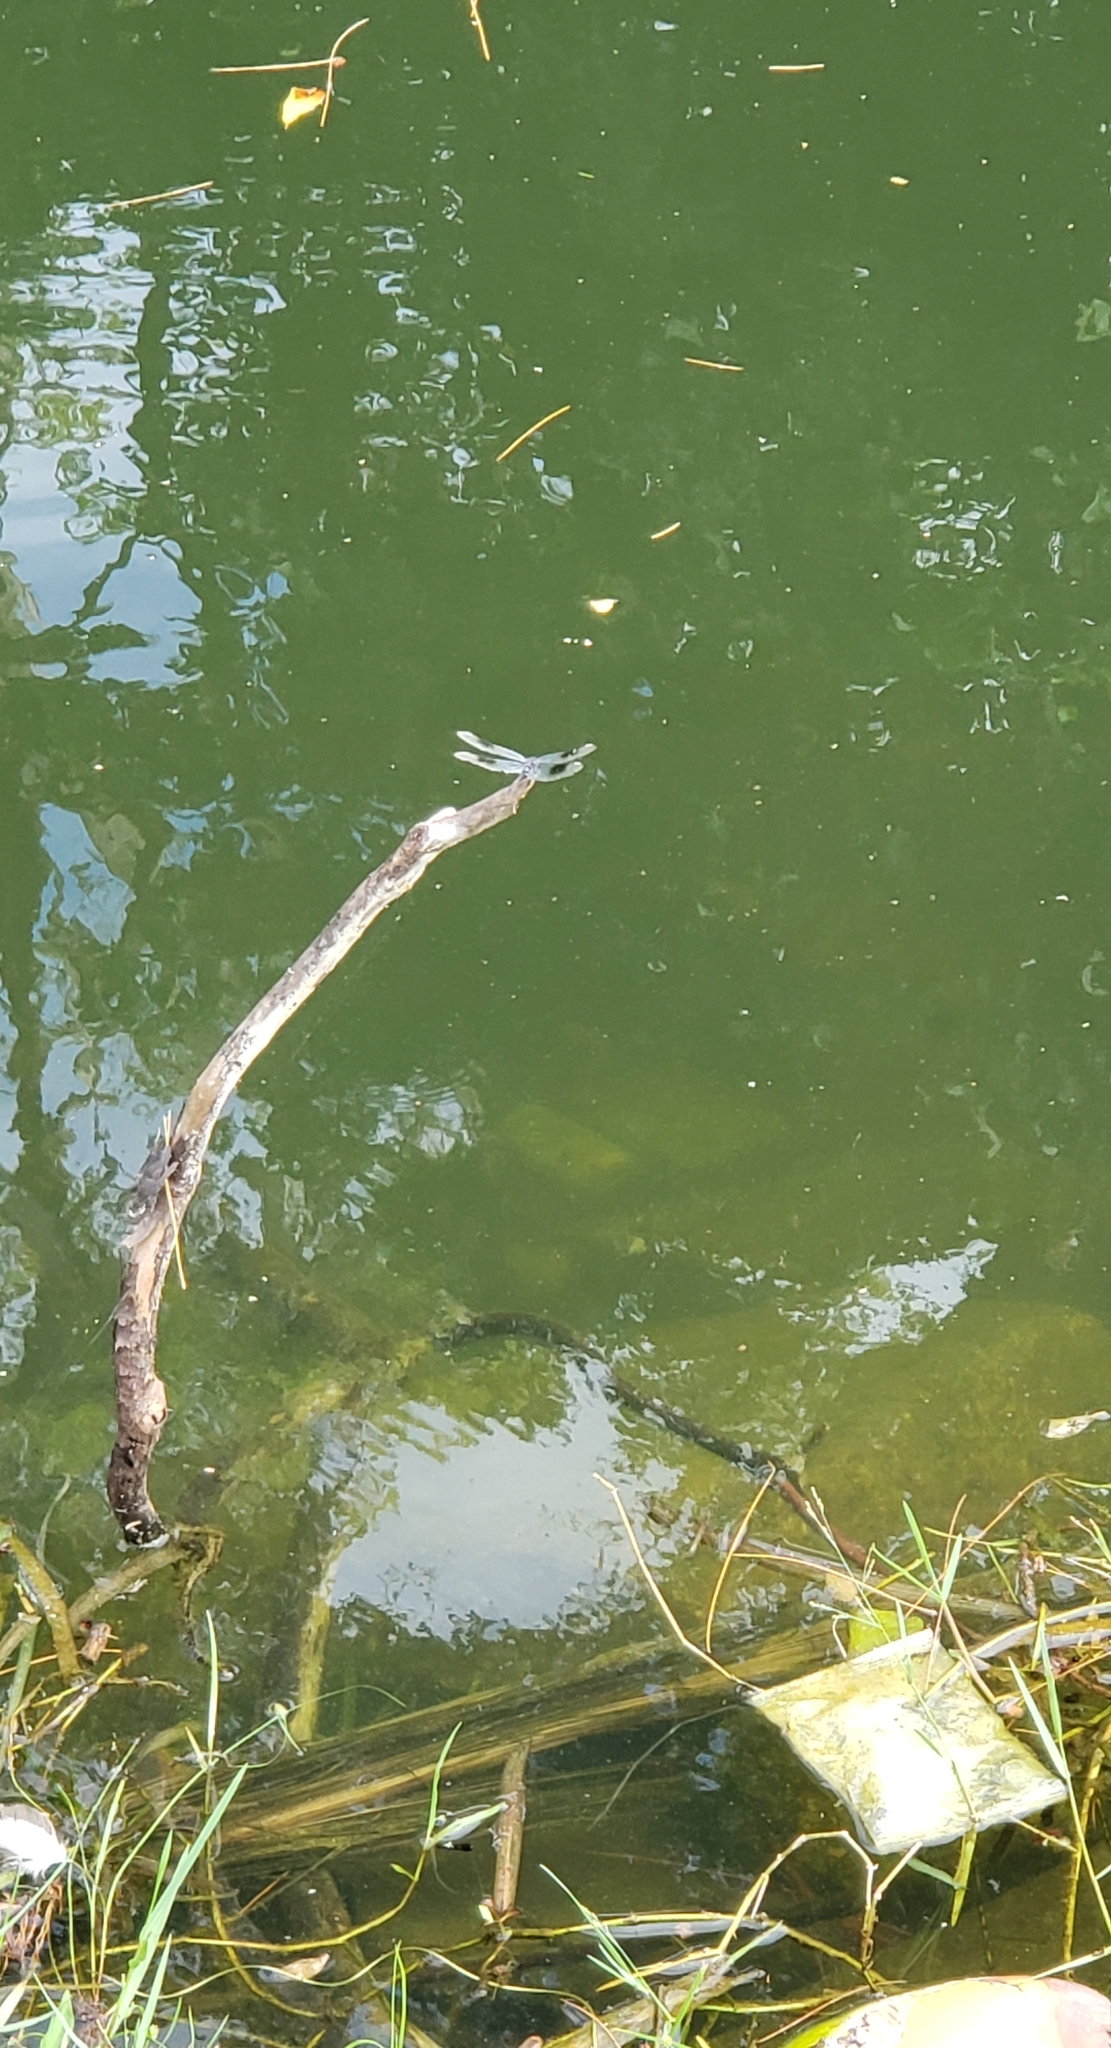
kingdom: Animalia
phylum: Arthropoda
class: Insecta
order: Odonata
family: Libellulidae
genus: Brachymesia
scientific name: Brachymesia gravida
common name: Four-spotted pennant
